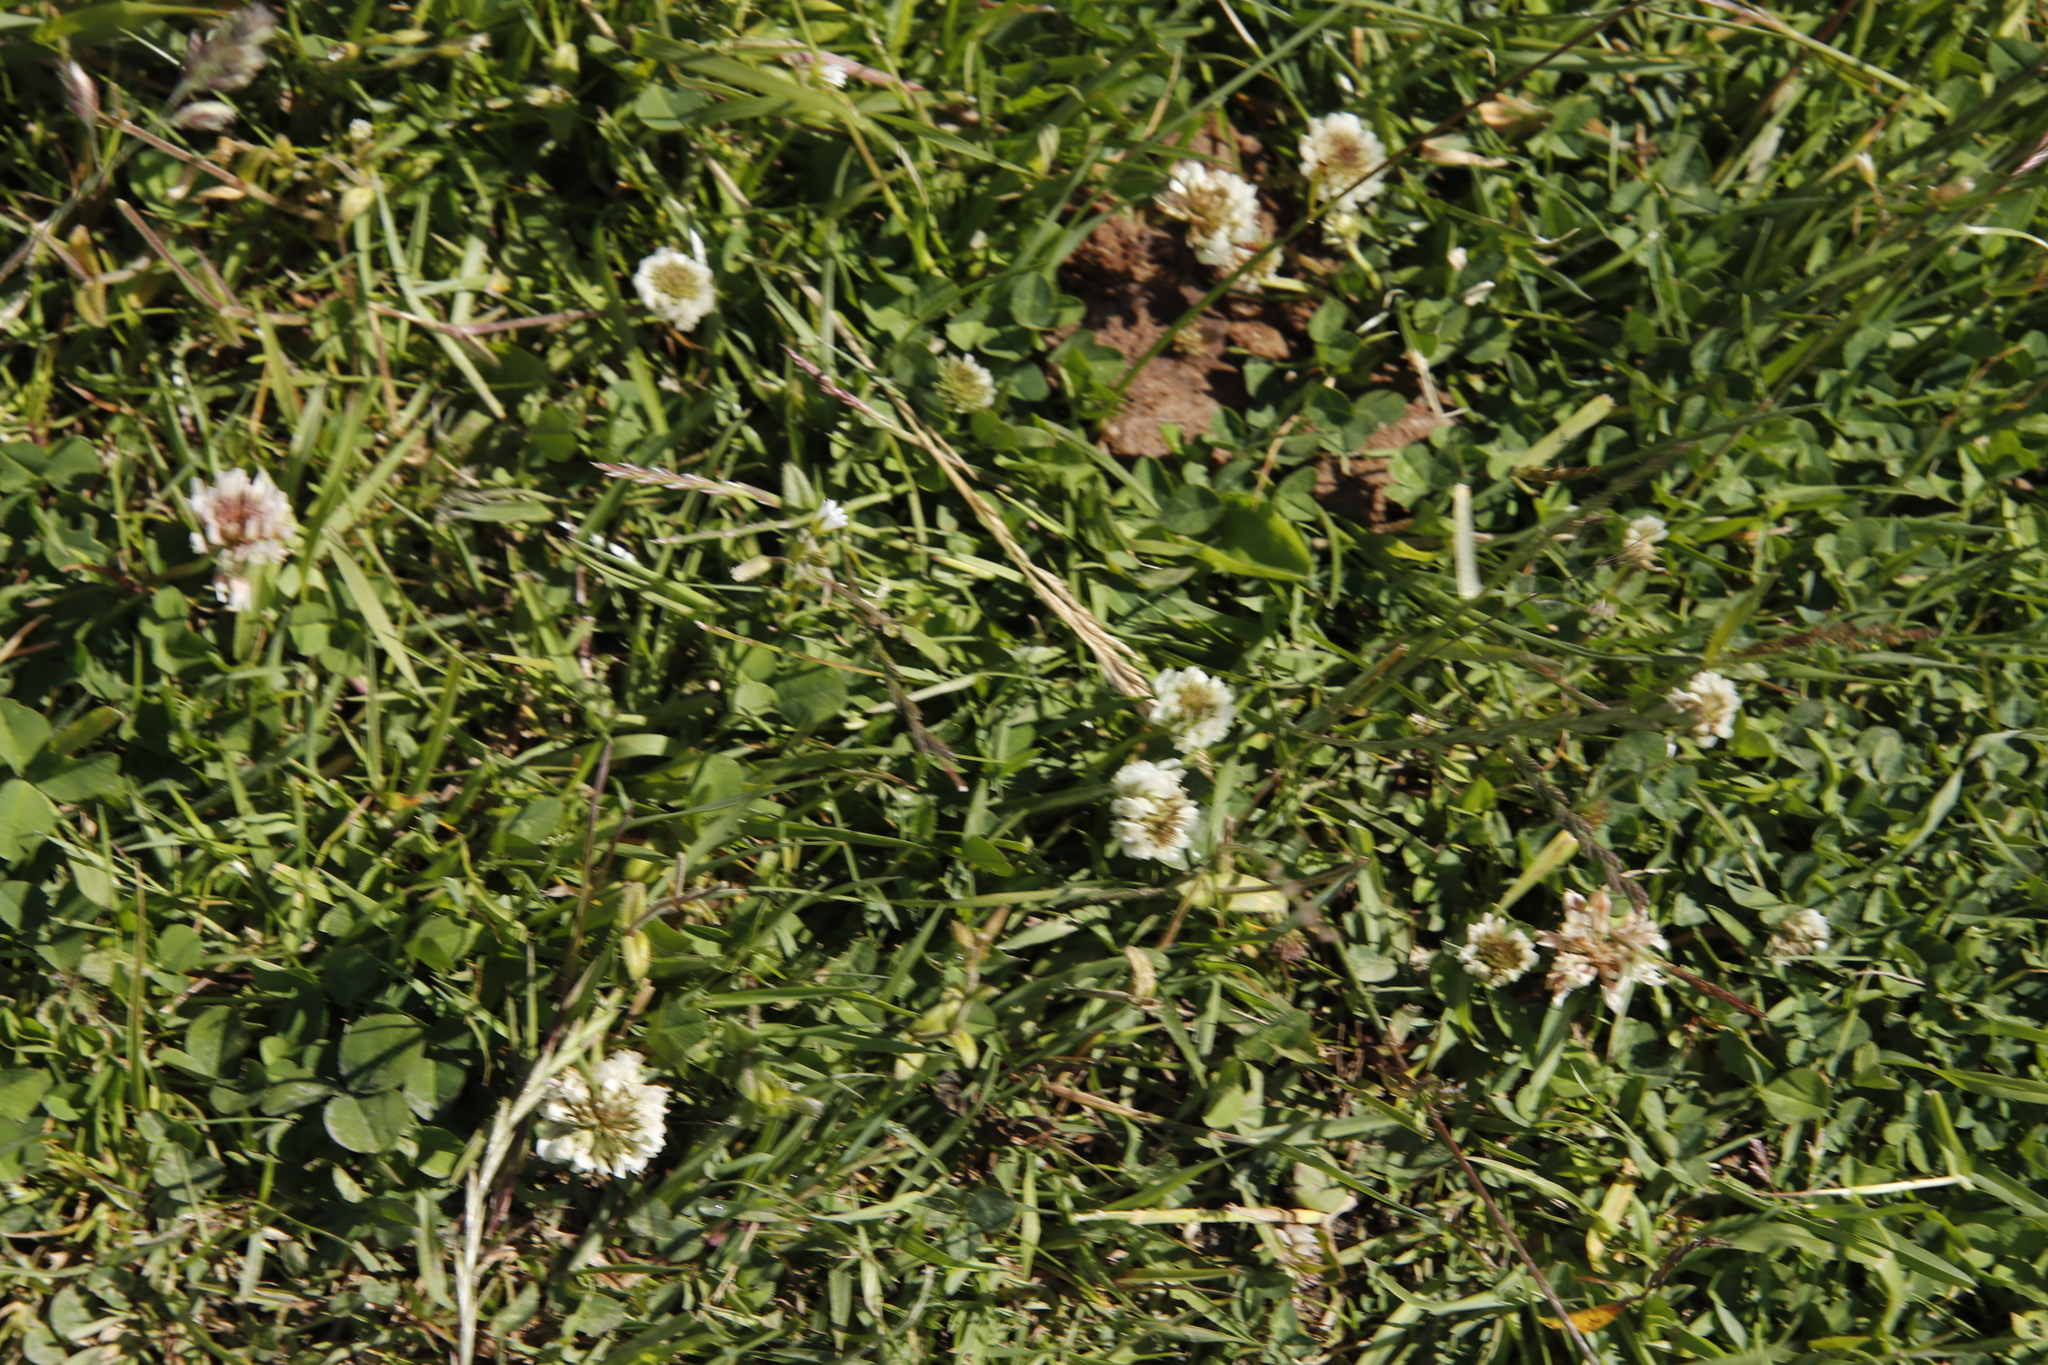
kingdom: Plantae
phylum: Tracheophyta
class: Magnoliopsida
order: Fabales
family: Fabaceae
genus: Trifolium
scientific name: Trifolium repens
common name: White clover
